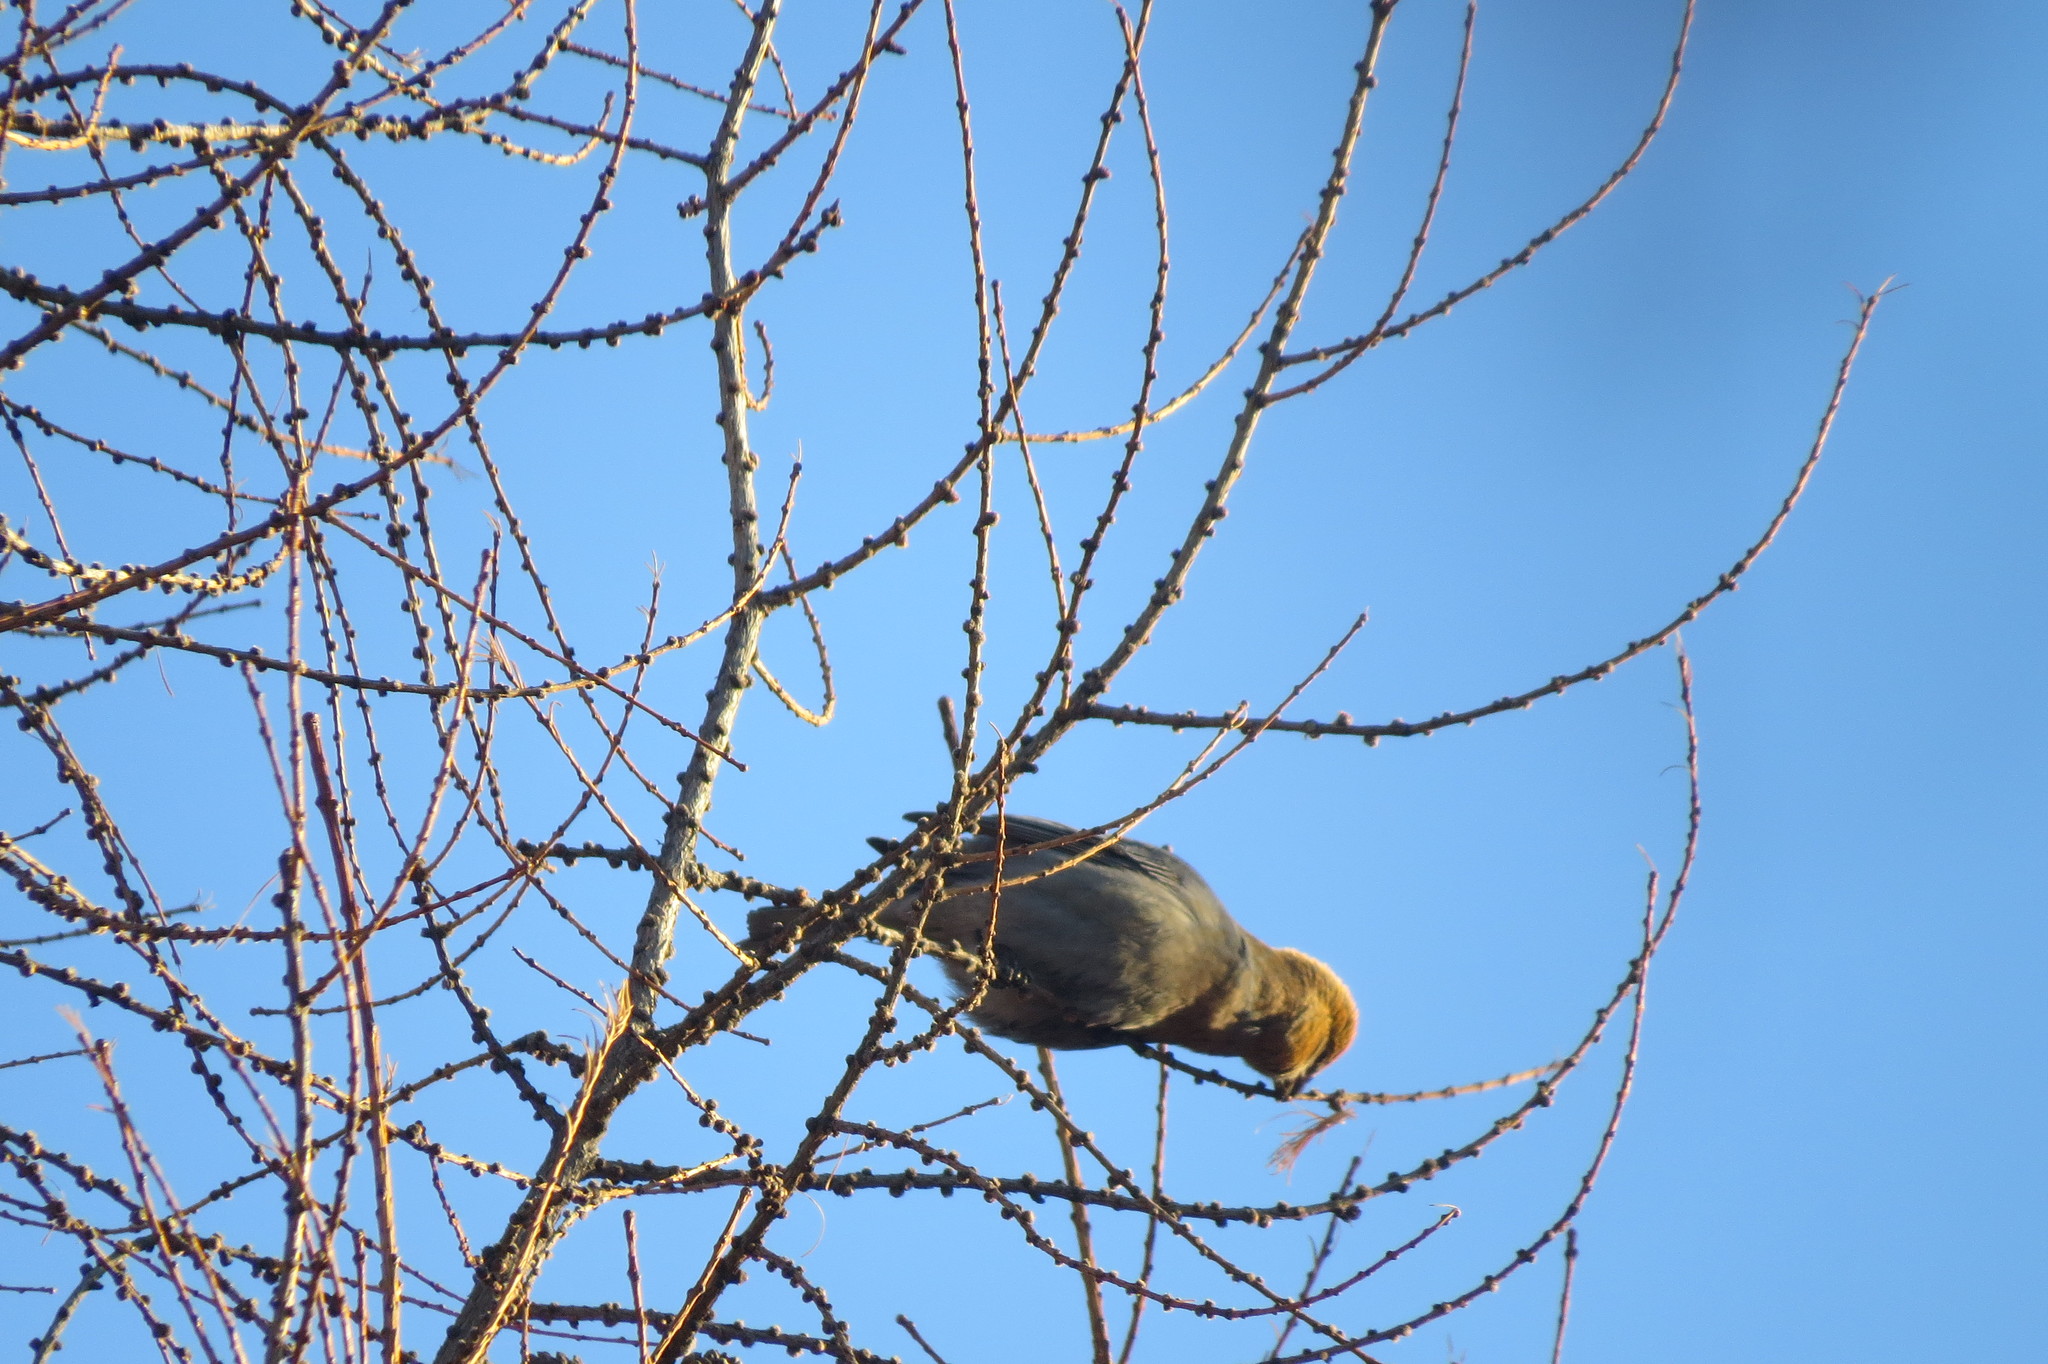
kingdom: Animalia
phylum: Chordata
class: Aves
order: Passeriformes
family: Fringillidae
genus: Pinicola
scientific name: Pinicola enucleator
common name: Pine grosbeak
